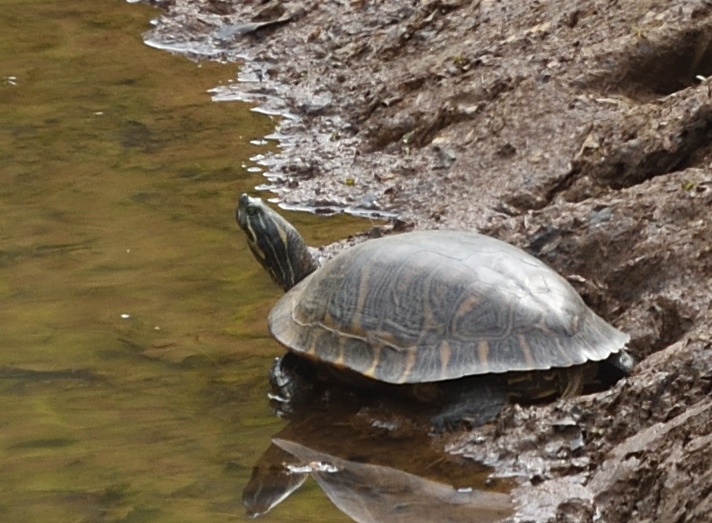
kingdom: Animalia
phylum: Chordata
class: Testudines
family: Emydidae
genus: Pseudemys
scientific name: Pseudemys concinna
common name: Eastern river cooter
